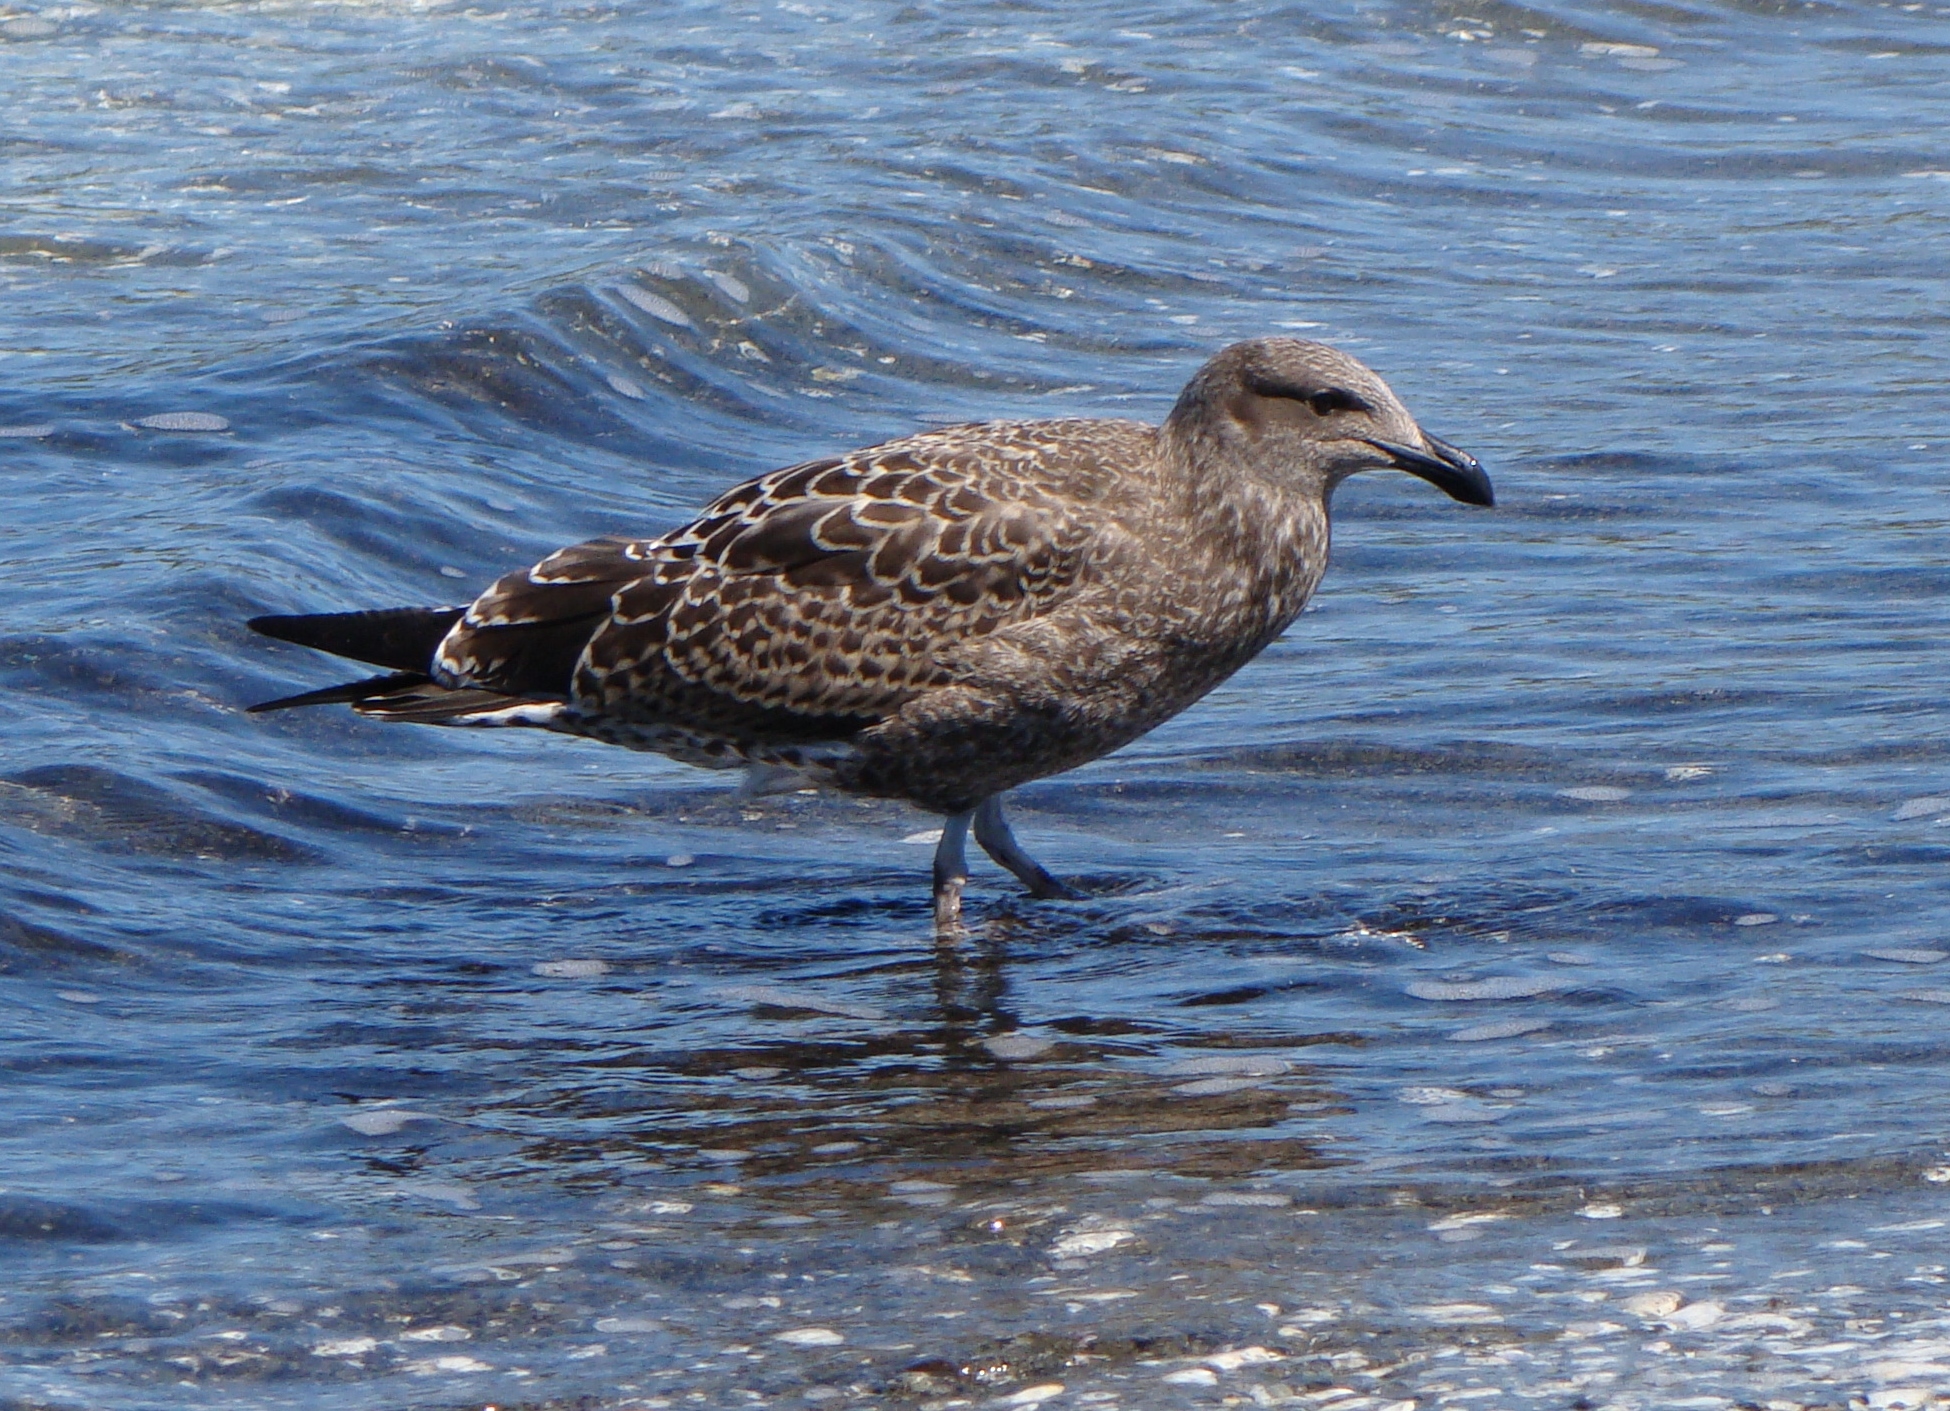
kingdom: Animalia
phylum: Chordata
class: Aves
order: Charadriiformes
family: Laridae
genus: Larus
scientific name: Larus dominicanus
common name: Kelp gull
